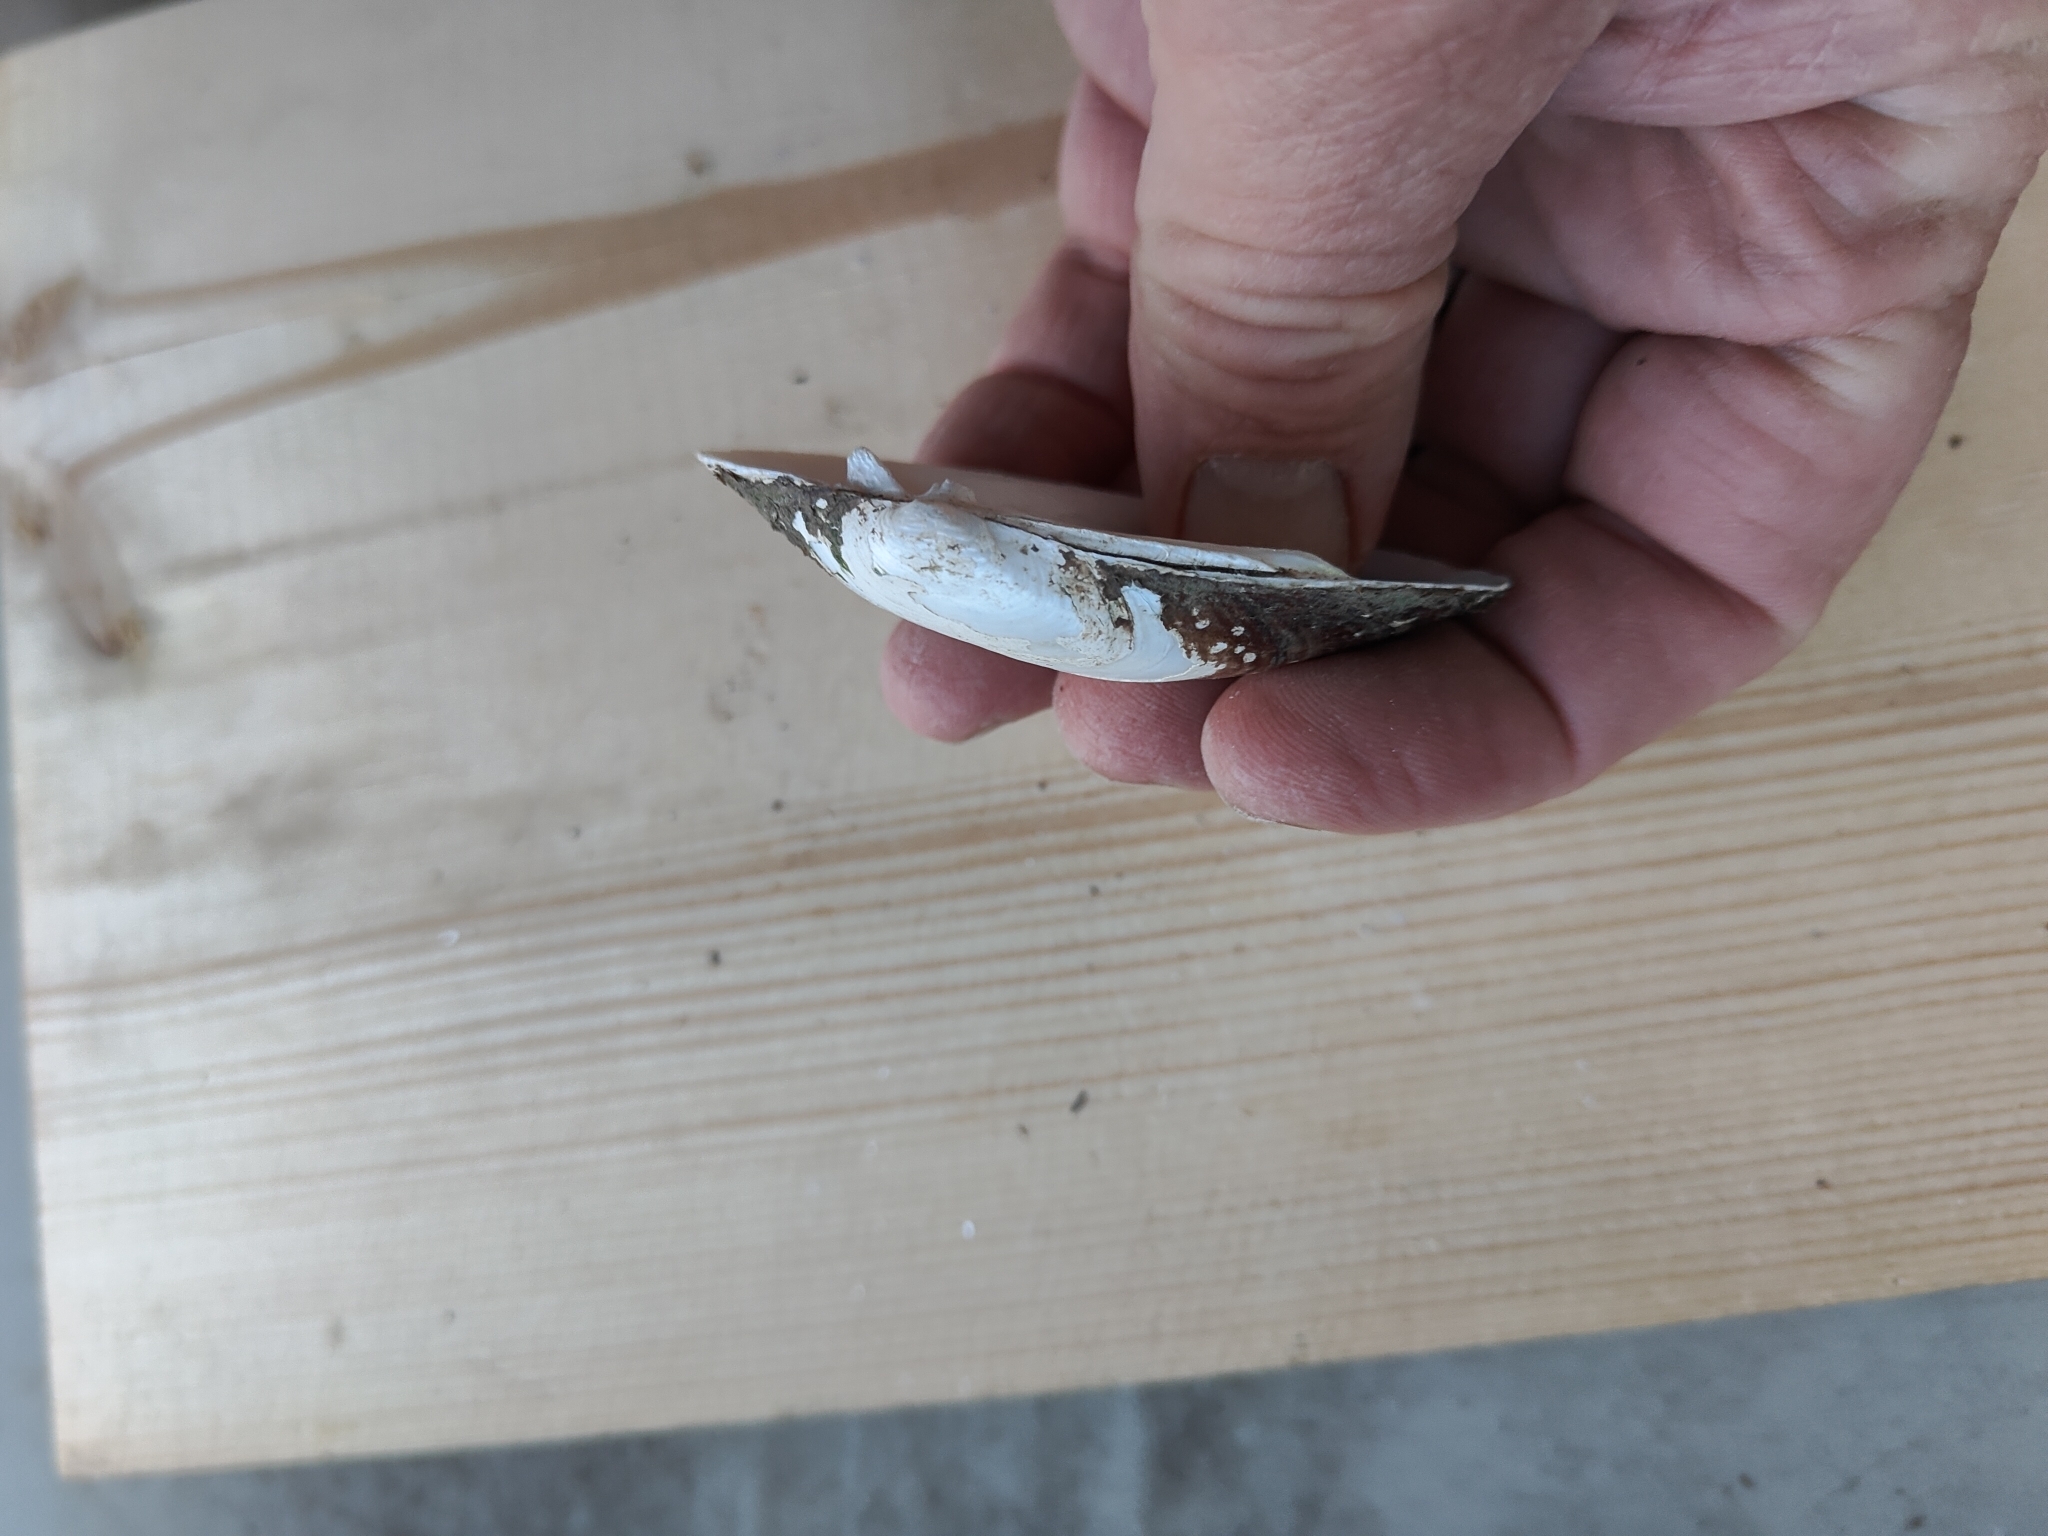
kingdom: Animalia
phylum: Mollusca
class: Bivalvia
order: Unionida
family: Unionidae
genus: Lampsilis
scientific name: Lampsilis siliquoidea
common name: Fatmucket
